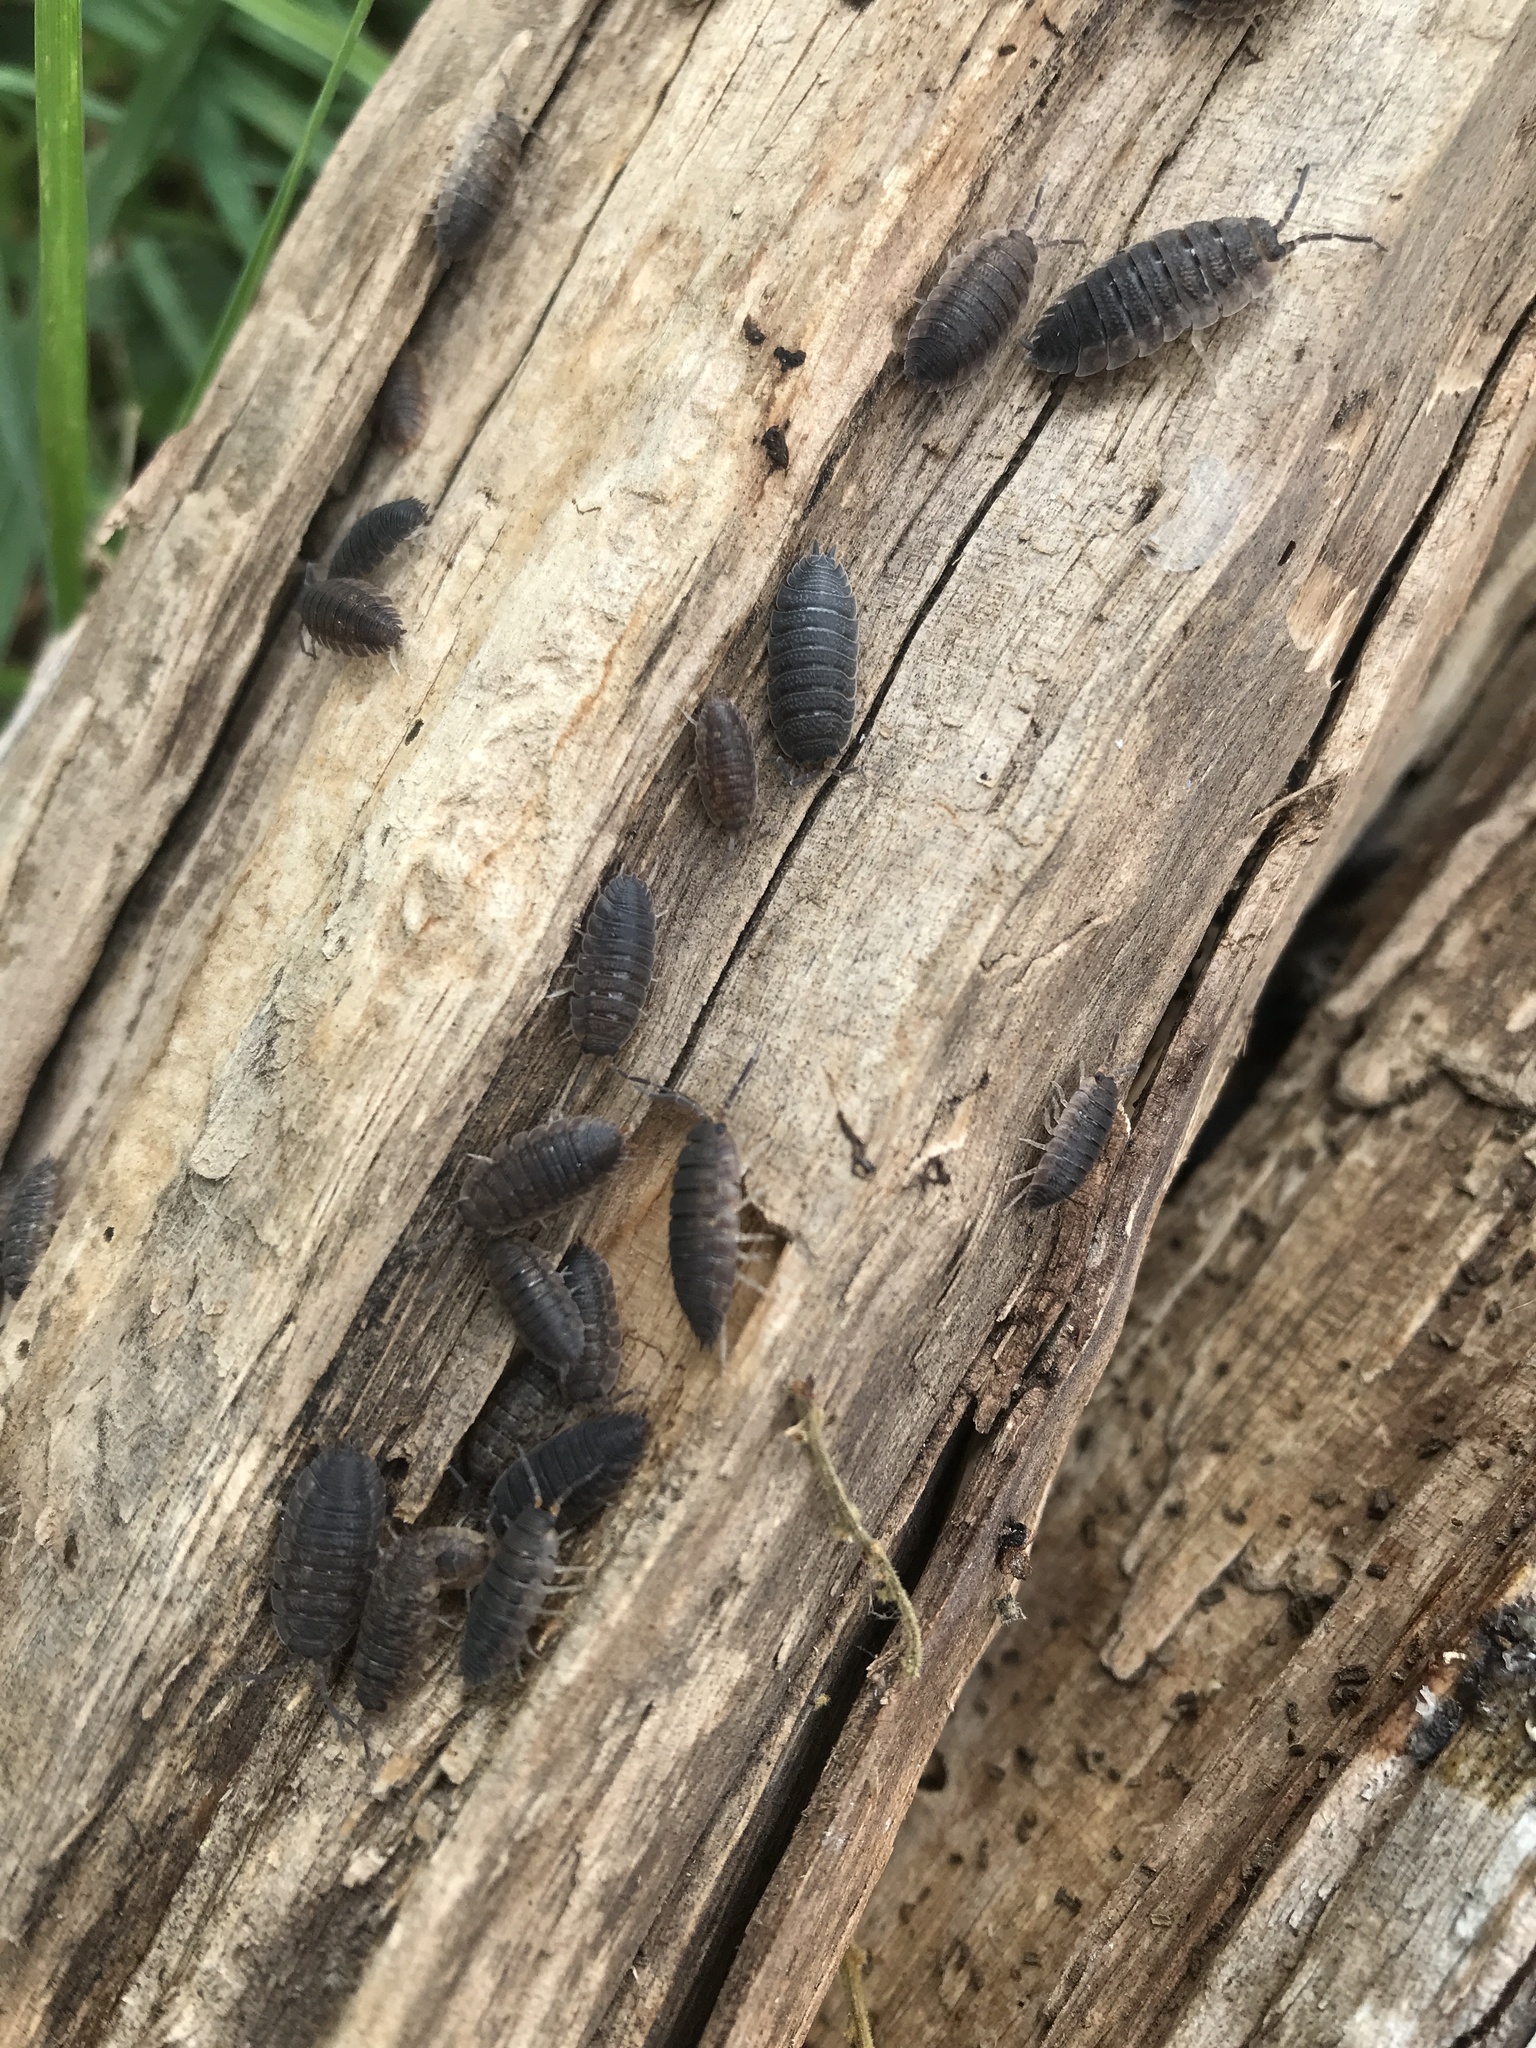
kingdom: Animalia
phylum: Arthropoda
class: Malacostraca
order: Isopoda
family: Porcellionidae
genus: Porcellio
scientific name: Porcellio scaber
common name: Common rough woodlouse
